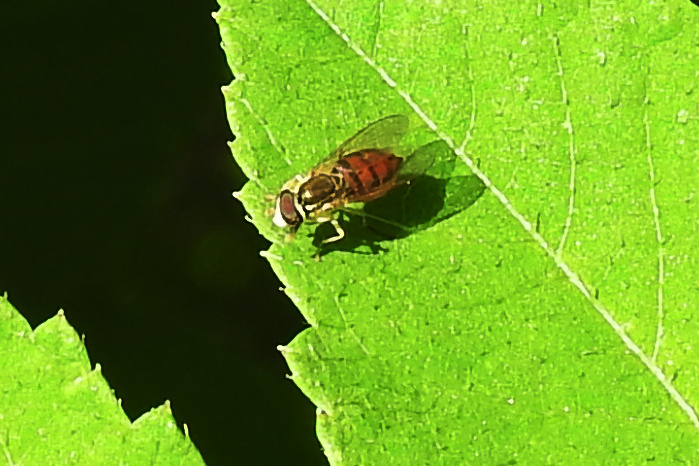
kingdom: Animalia
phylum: Arthropoda
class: Insecta
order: Diptera
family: Syrphidae
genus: Toxomerus
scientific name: Toxomerus marginatus
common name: Syrphid fly
